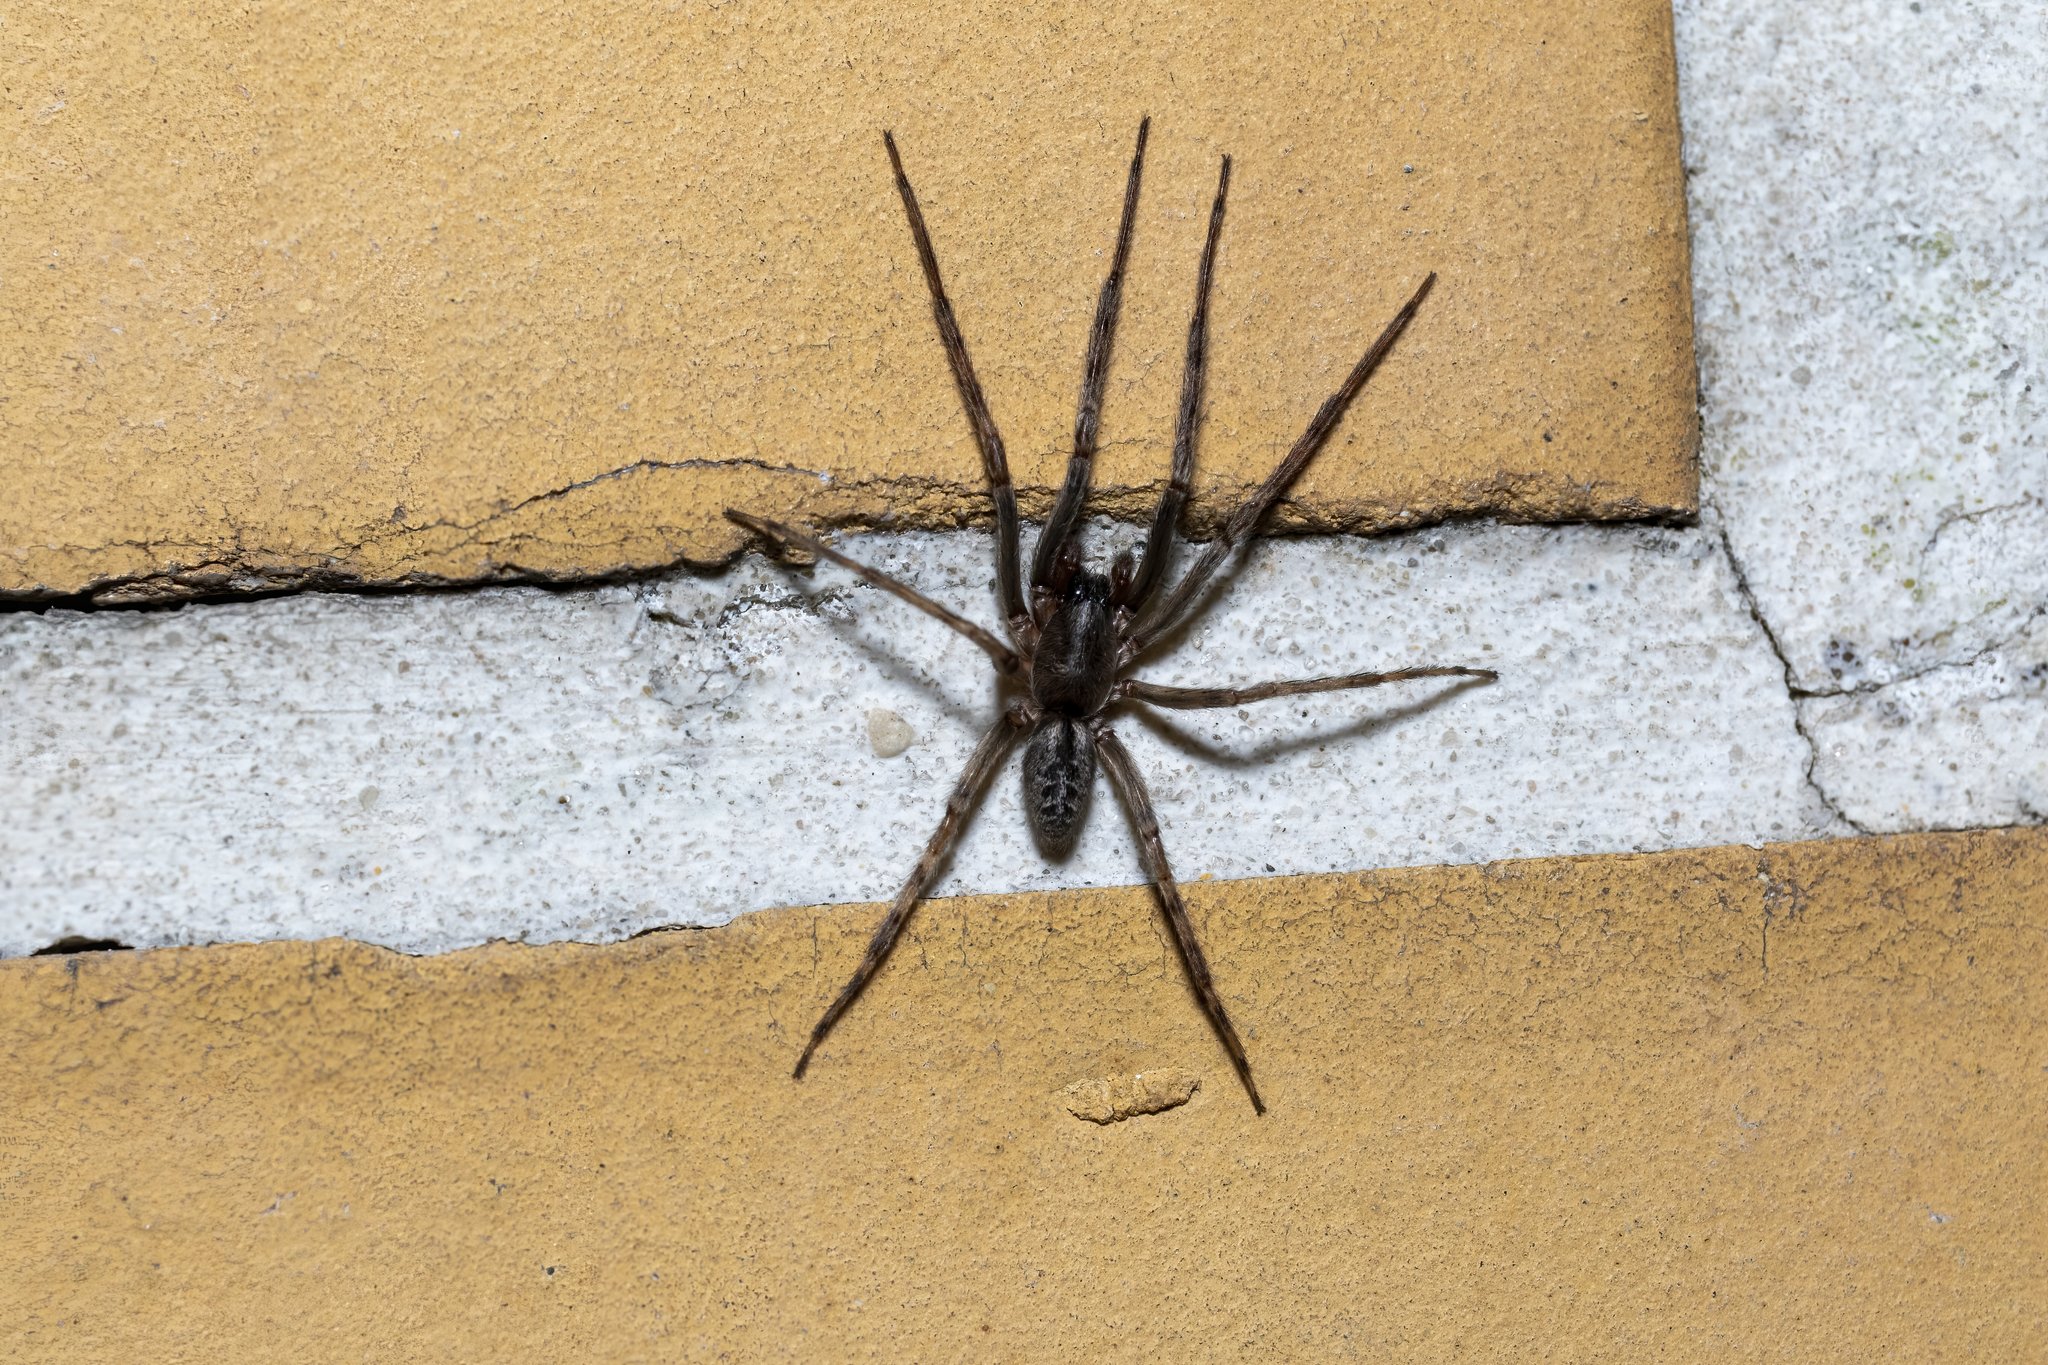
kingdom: Animalia
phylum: Arthropoda
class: Arachnida
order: Araneae
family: Segestriidae
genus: Segestria
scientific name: Segestria bavarica
